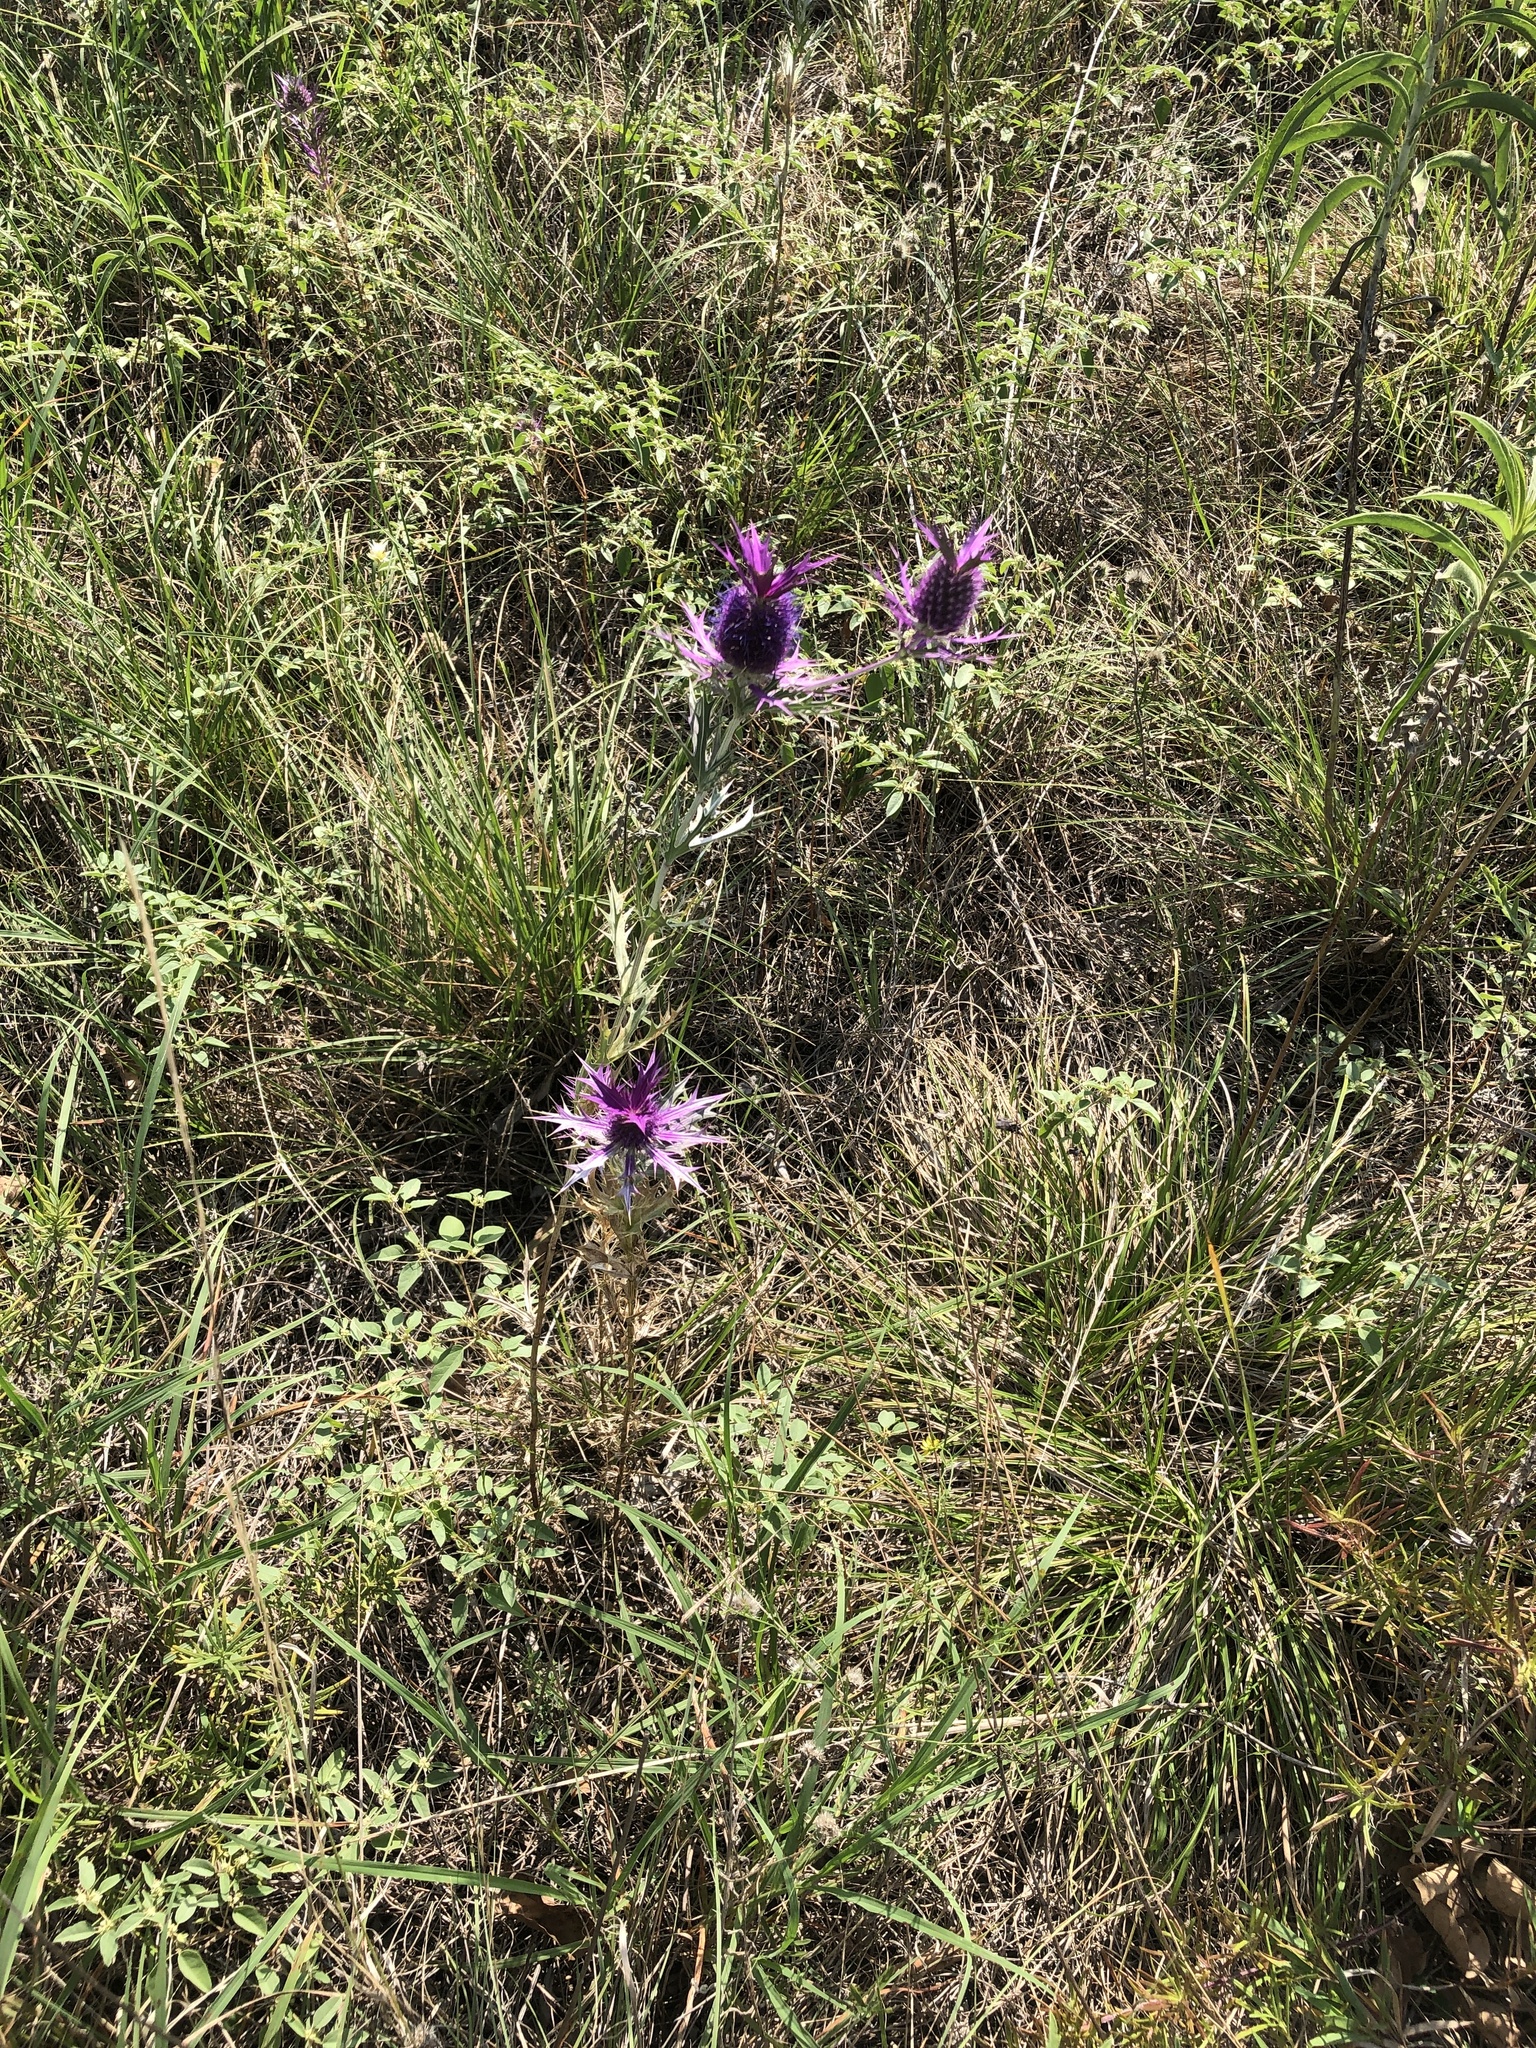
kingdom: Plantae
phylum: Tracheophyta
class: Magnoliopsida
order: Apiales
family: Apiaceae
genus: Eryngium
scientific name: Eryngium leavenworthii
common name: Leavenworth's eryngo
